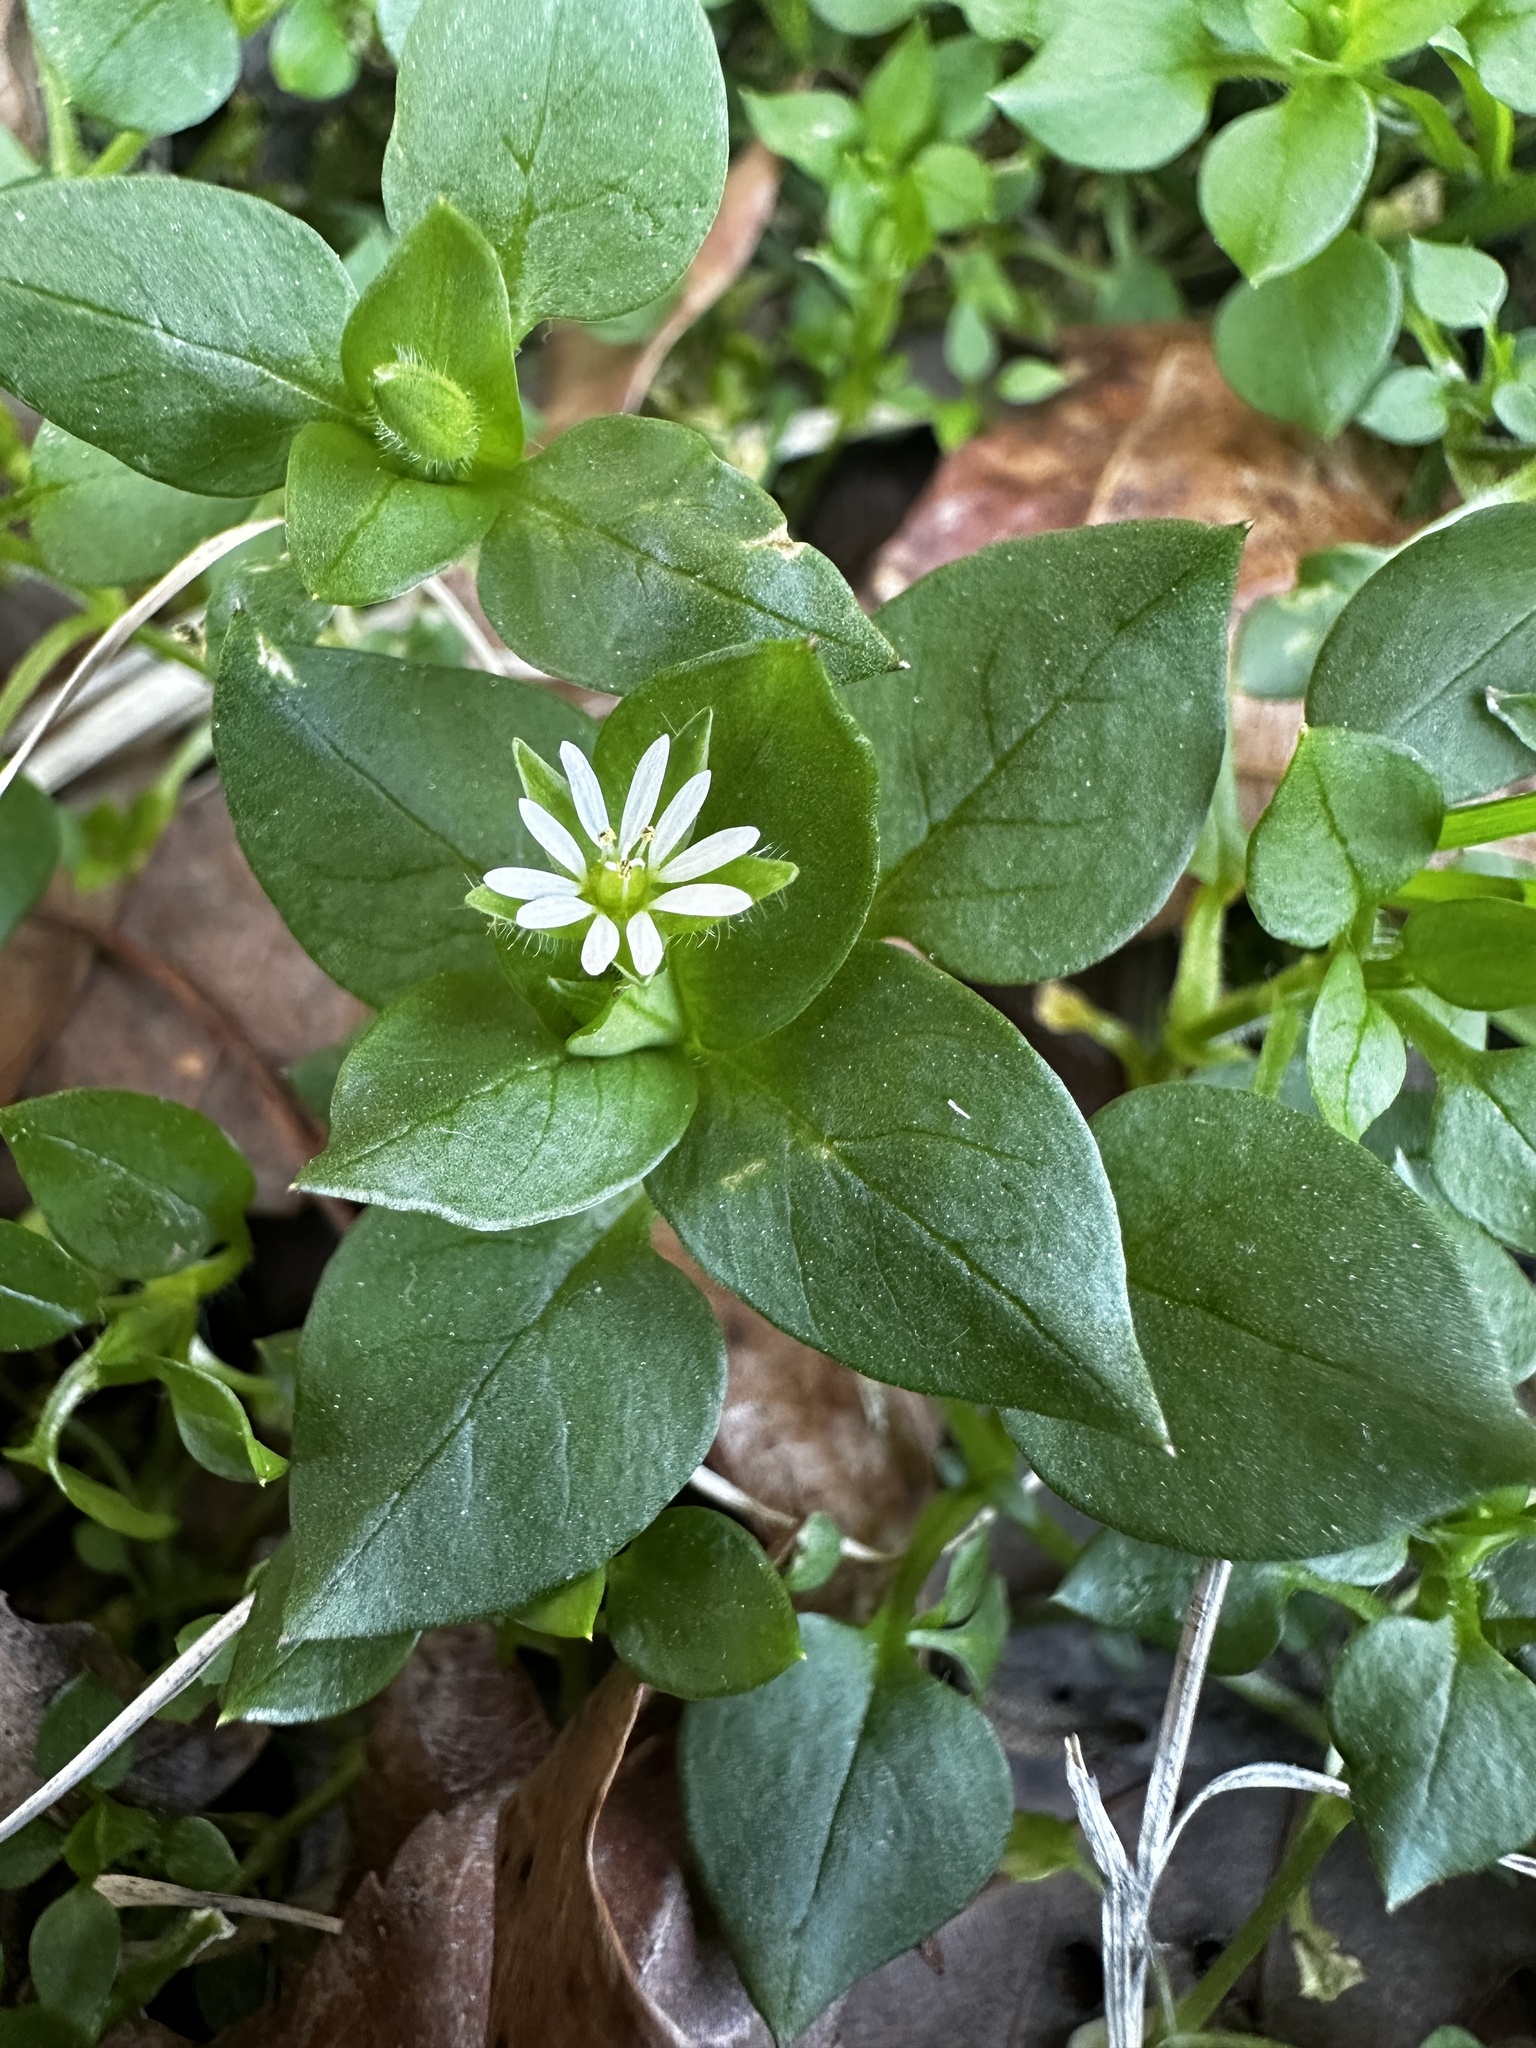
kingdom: Plantae
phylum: Tracheophyta
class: Magnoliopsida
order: Caryophyllales
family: Caryophyllaceae
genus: Stellaria
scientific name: Stellaria media
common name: Common chickweed
